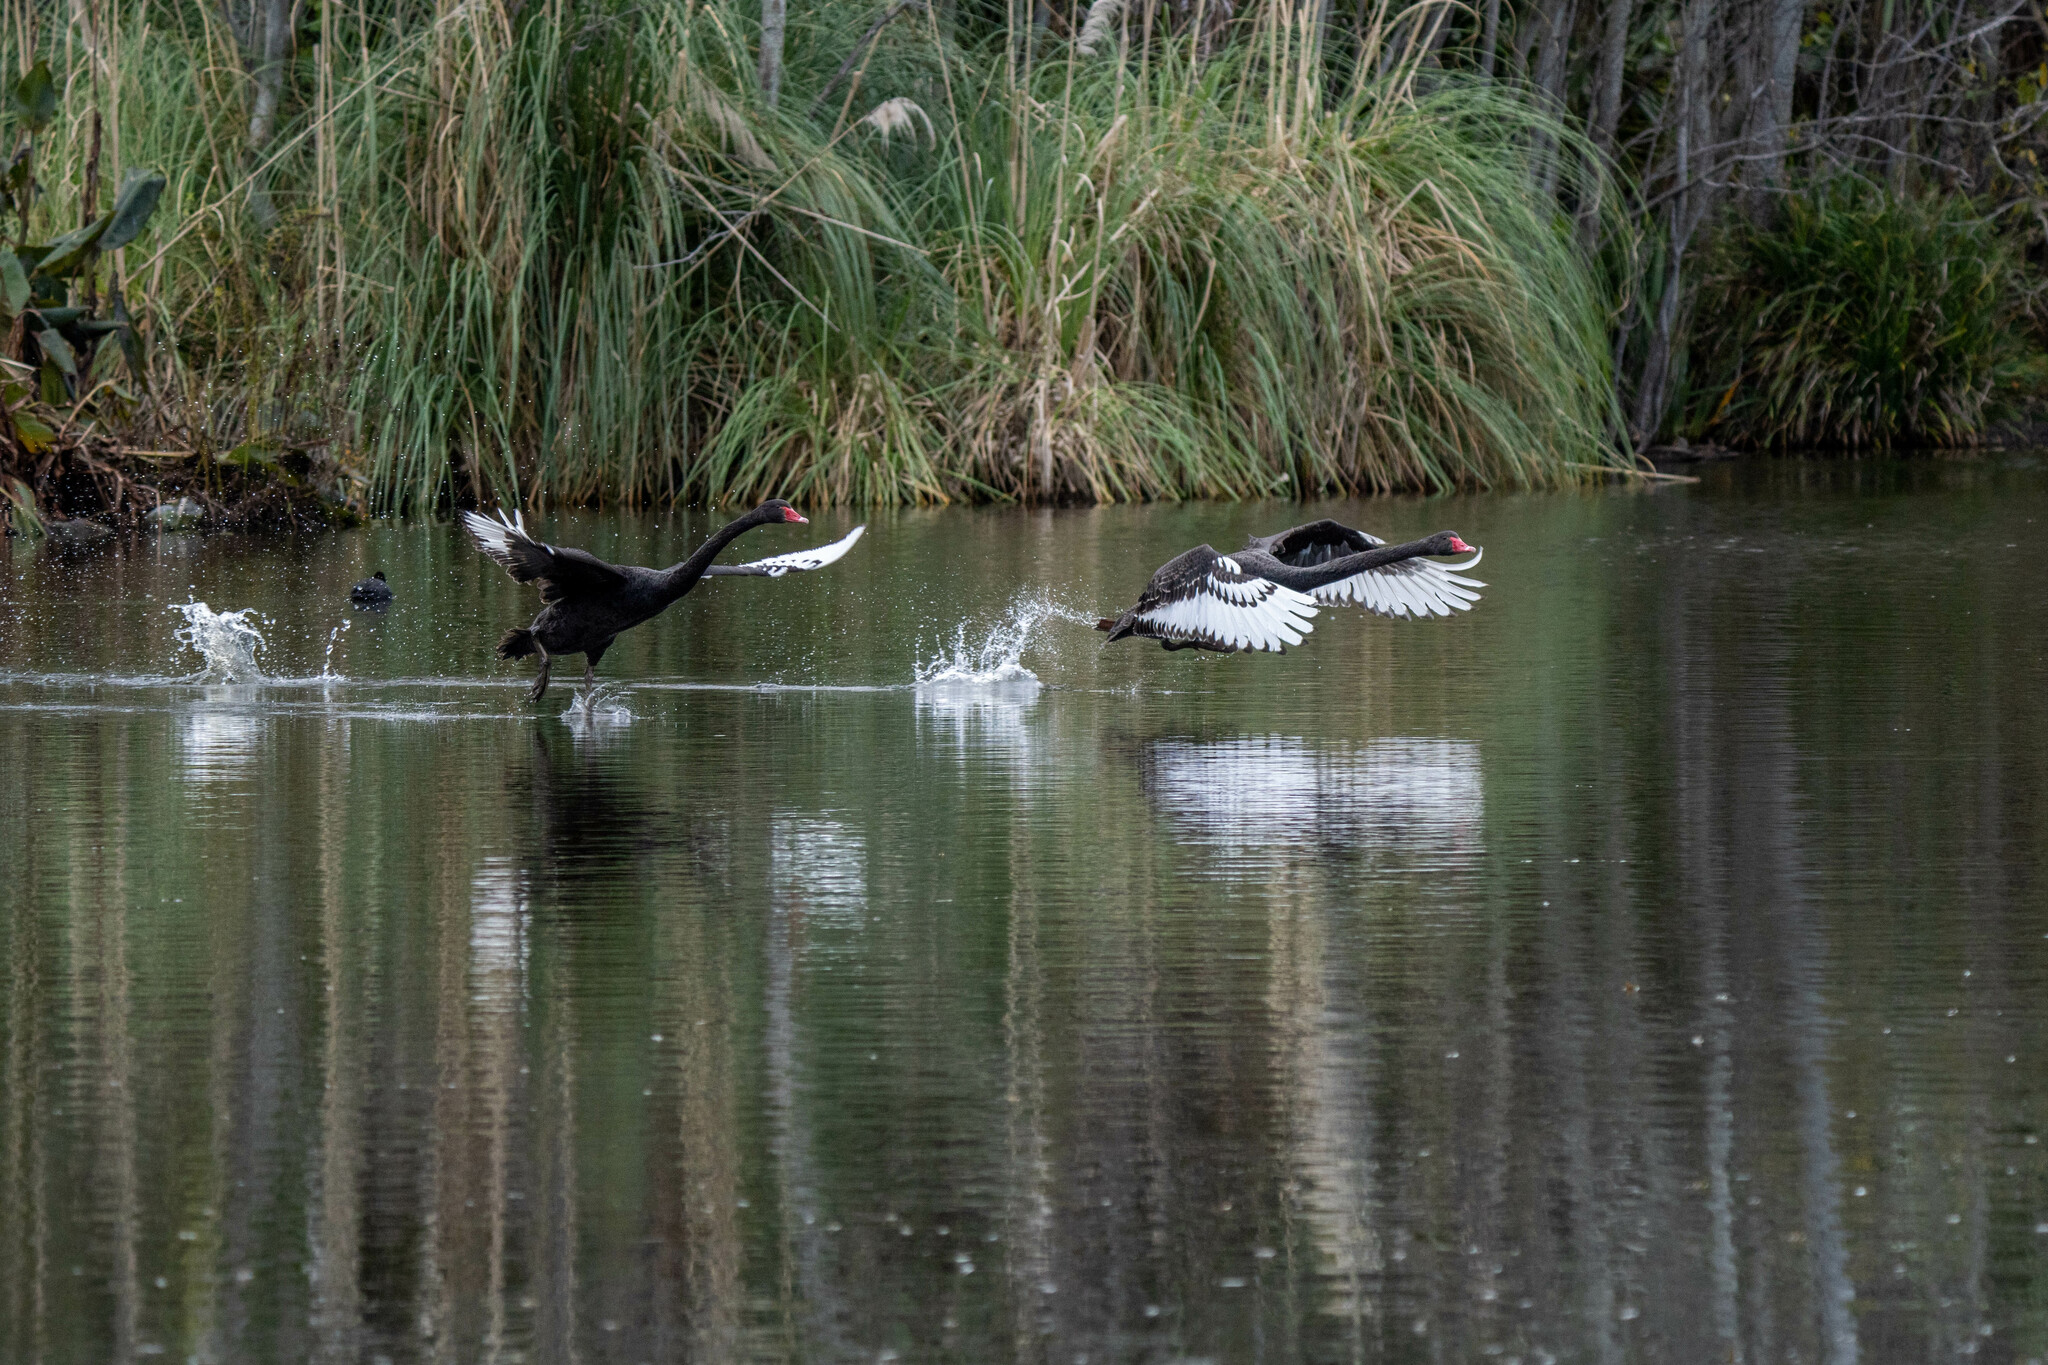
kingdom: Animalia
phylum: Chordata
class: Aves
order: Anseriformes
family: Anatidae
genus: Cygnus
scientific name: Cygnus atratus
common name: Black swan
